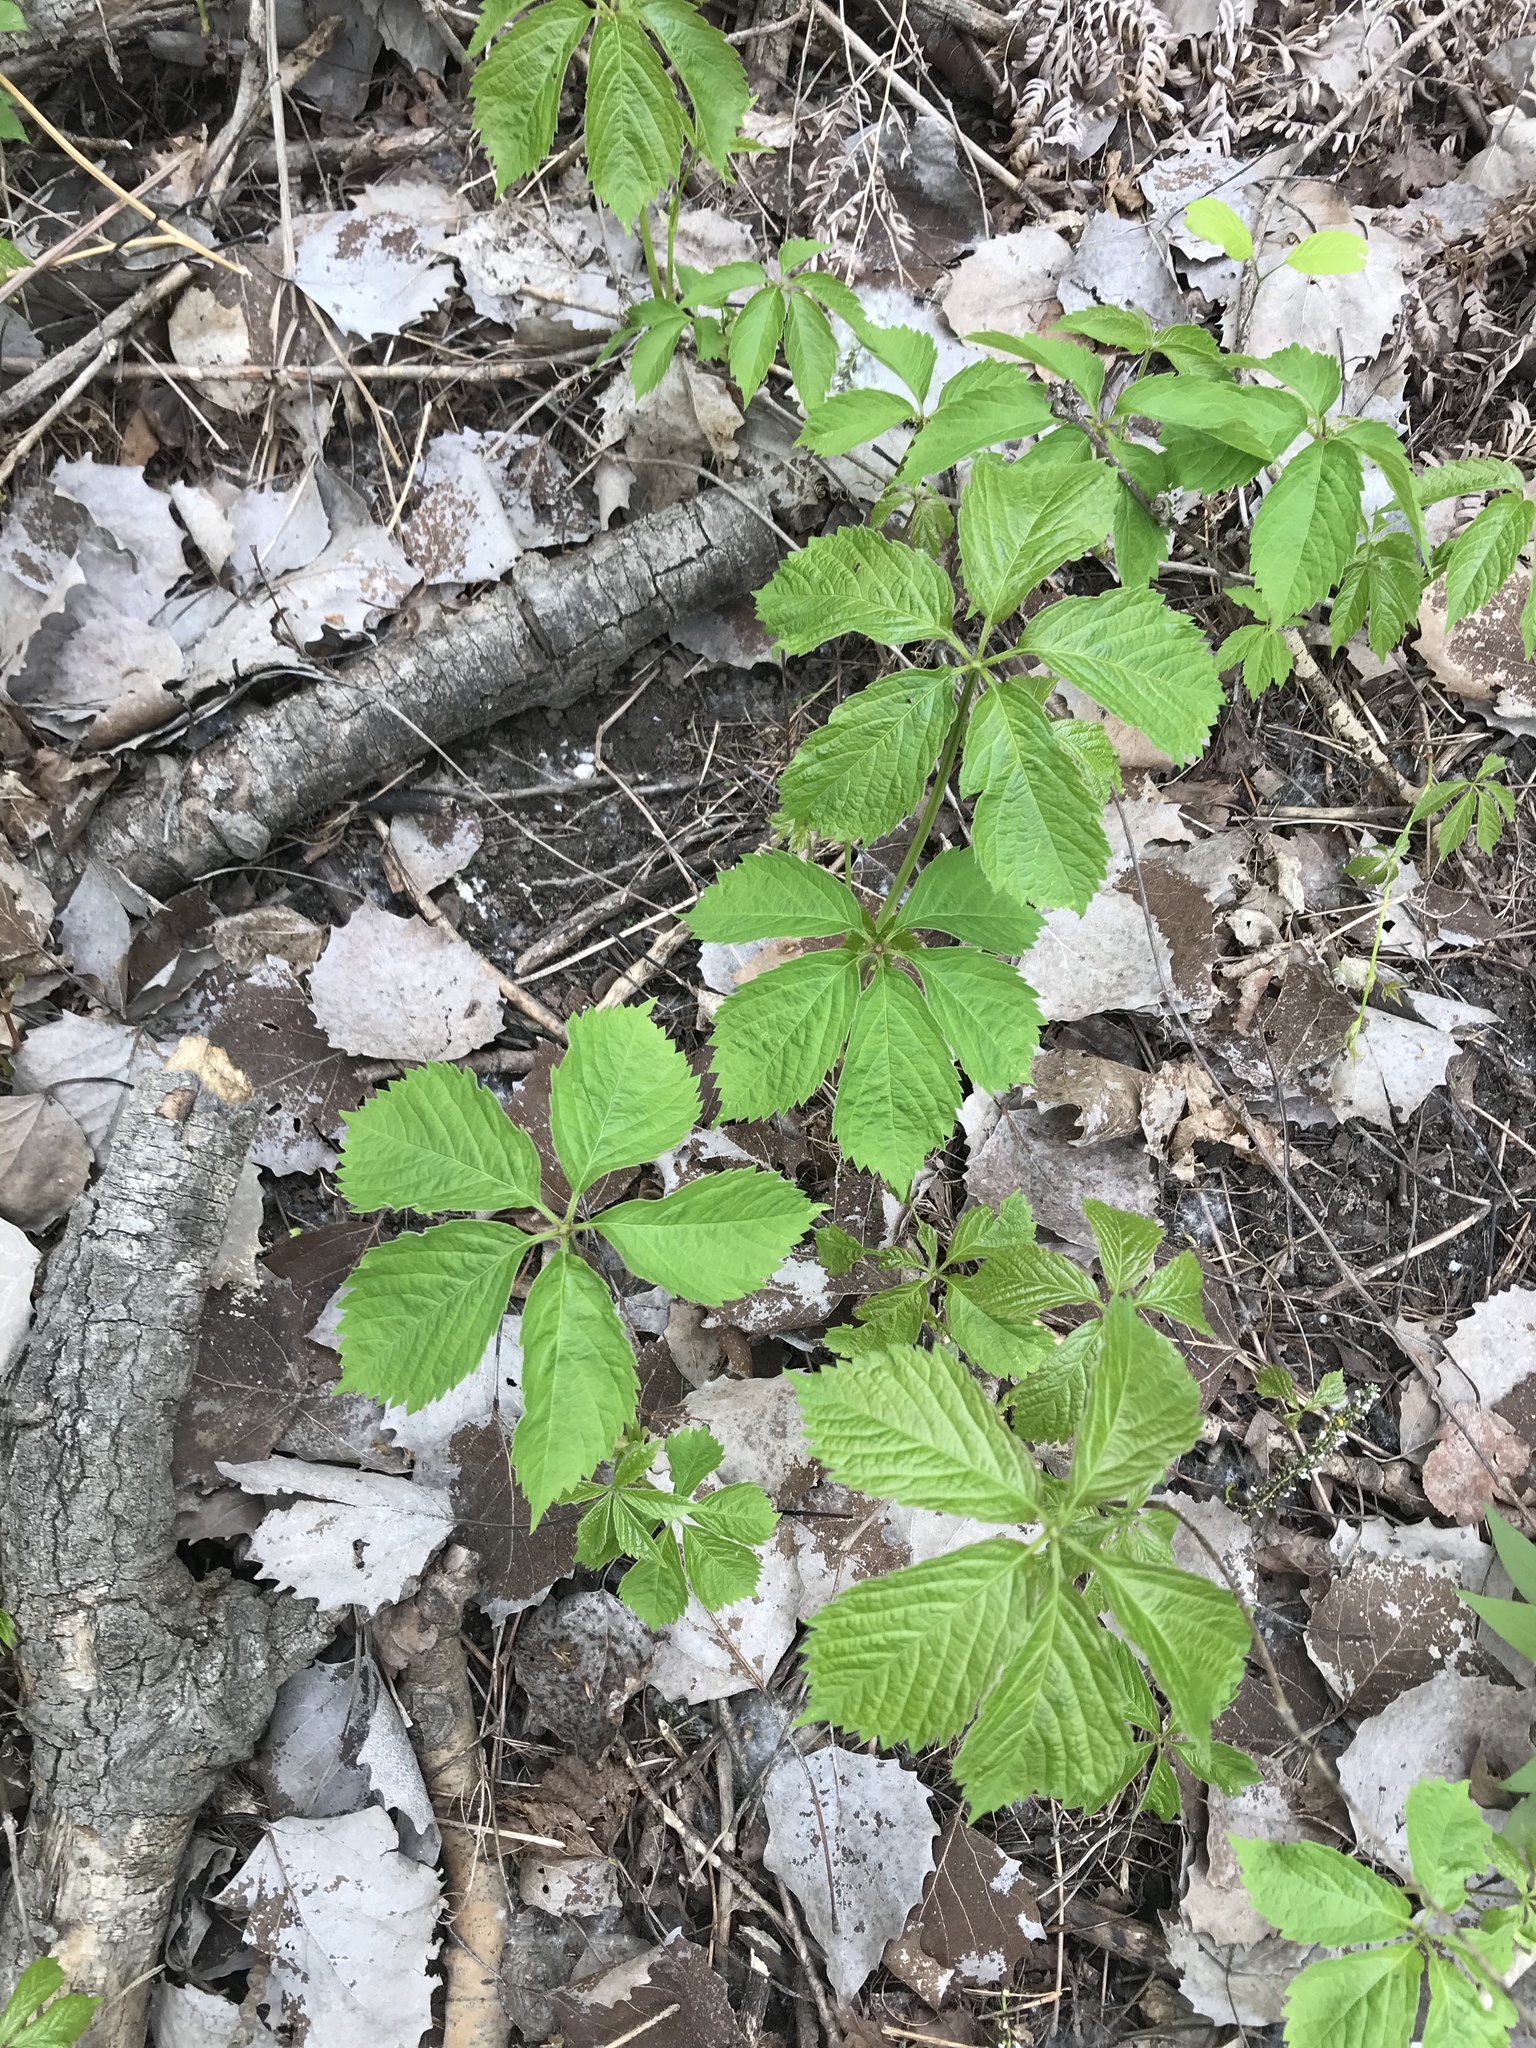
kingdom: Plantae
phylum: Tracheophyta
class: Magnoliopsida
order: Vitales
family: Vitaceae
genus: Parthenocissus
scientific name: Parthenocissus quinquefolia
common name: Virginia-creeper
